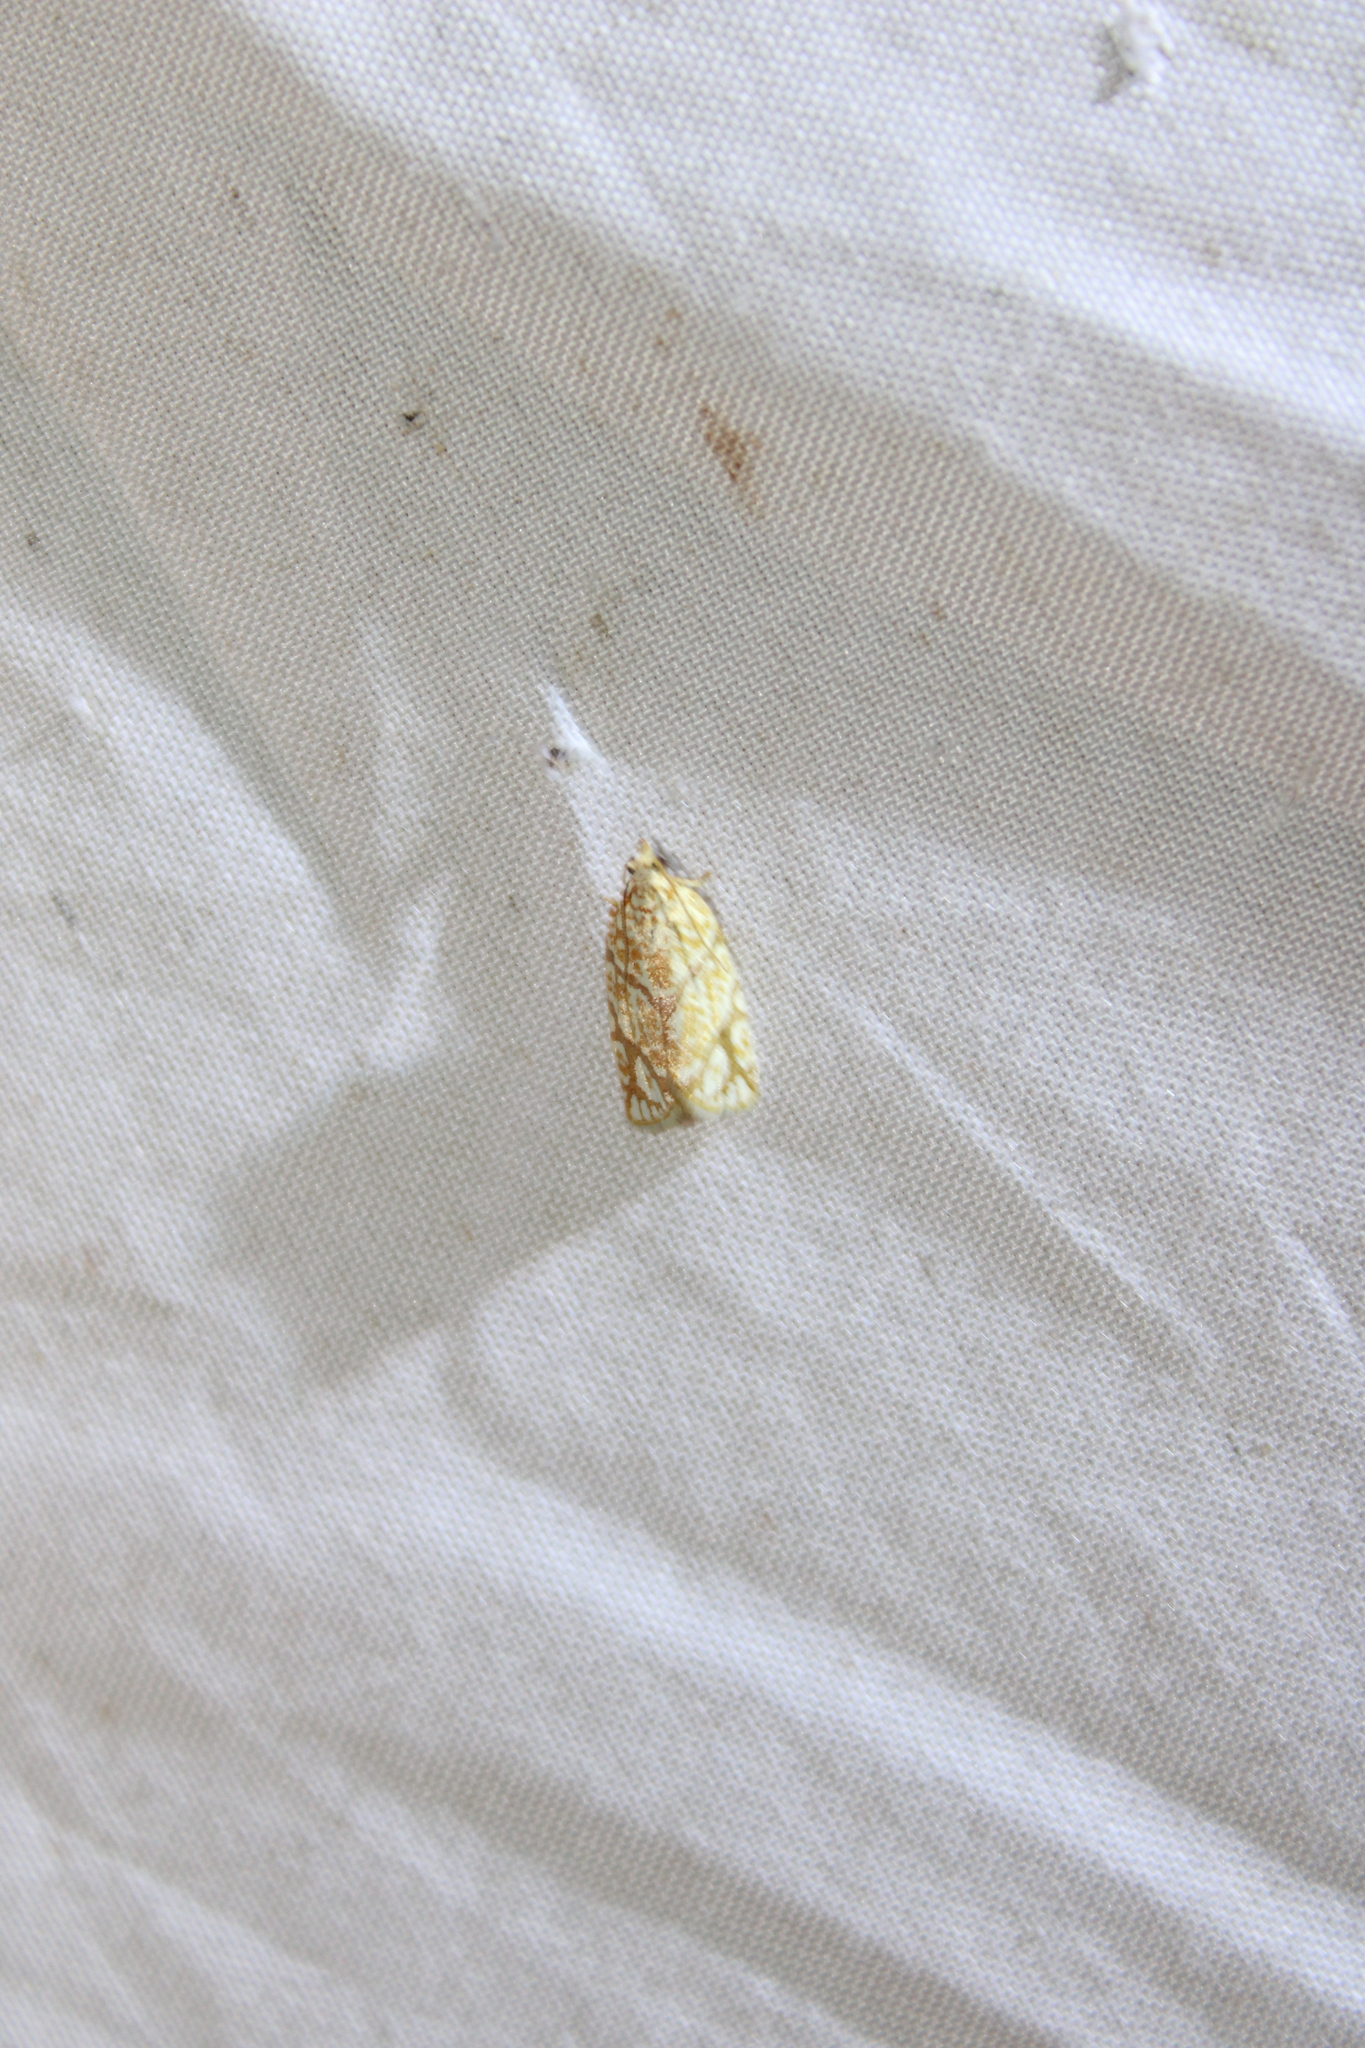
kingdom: Animalia
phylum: Arthropoda
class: Insecta
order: Lepidoptera
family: Tortricidae
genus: Argyrotaenia
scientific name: Argyrotaenia quercifoliana
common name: Yellow-winged oak leafroller moth
